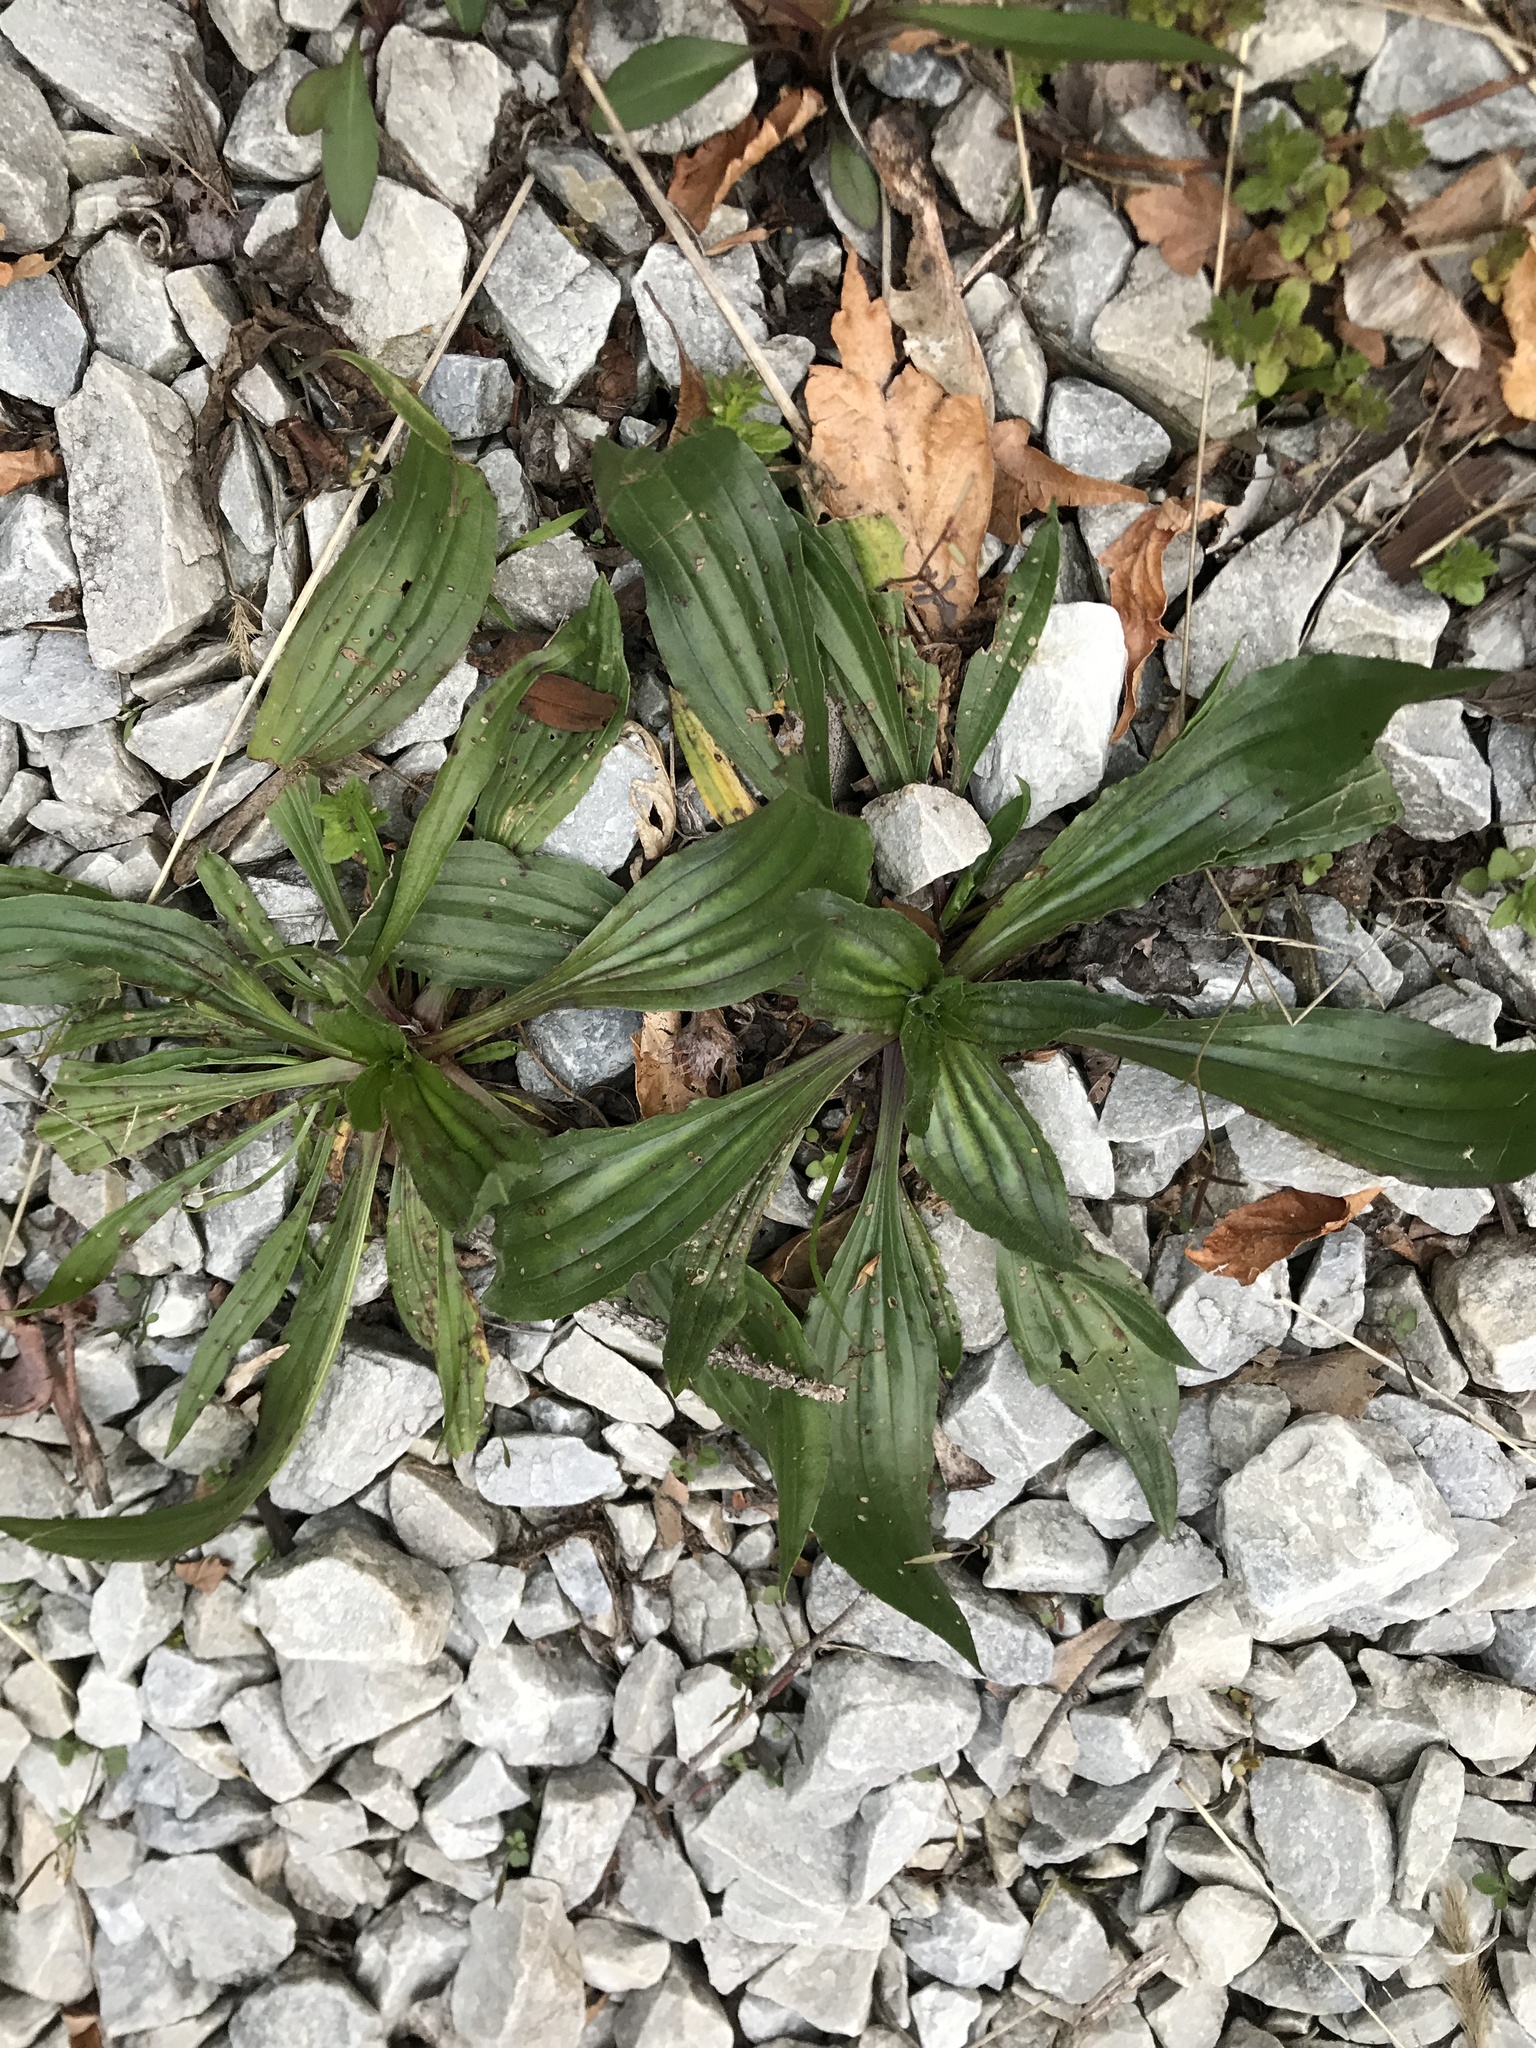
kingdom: Plantae
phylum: Tracheophyta
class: Magnoliopsida
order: Lamiales
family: Plantaginaceae
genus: Plantago
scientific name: Plantago lanceolata
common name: Ribwort plantain
